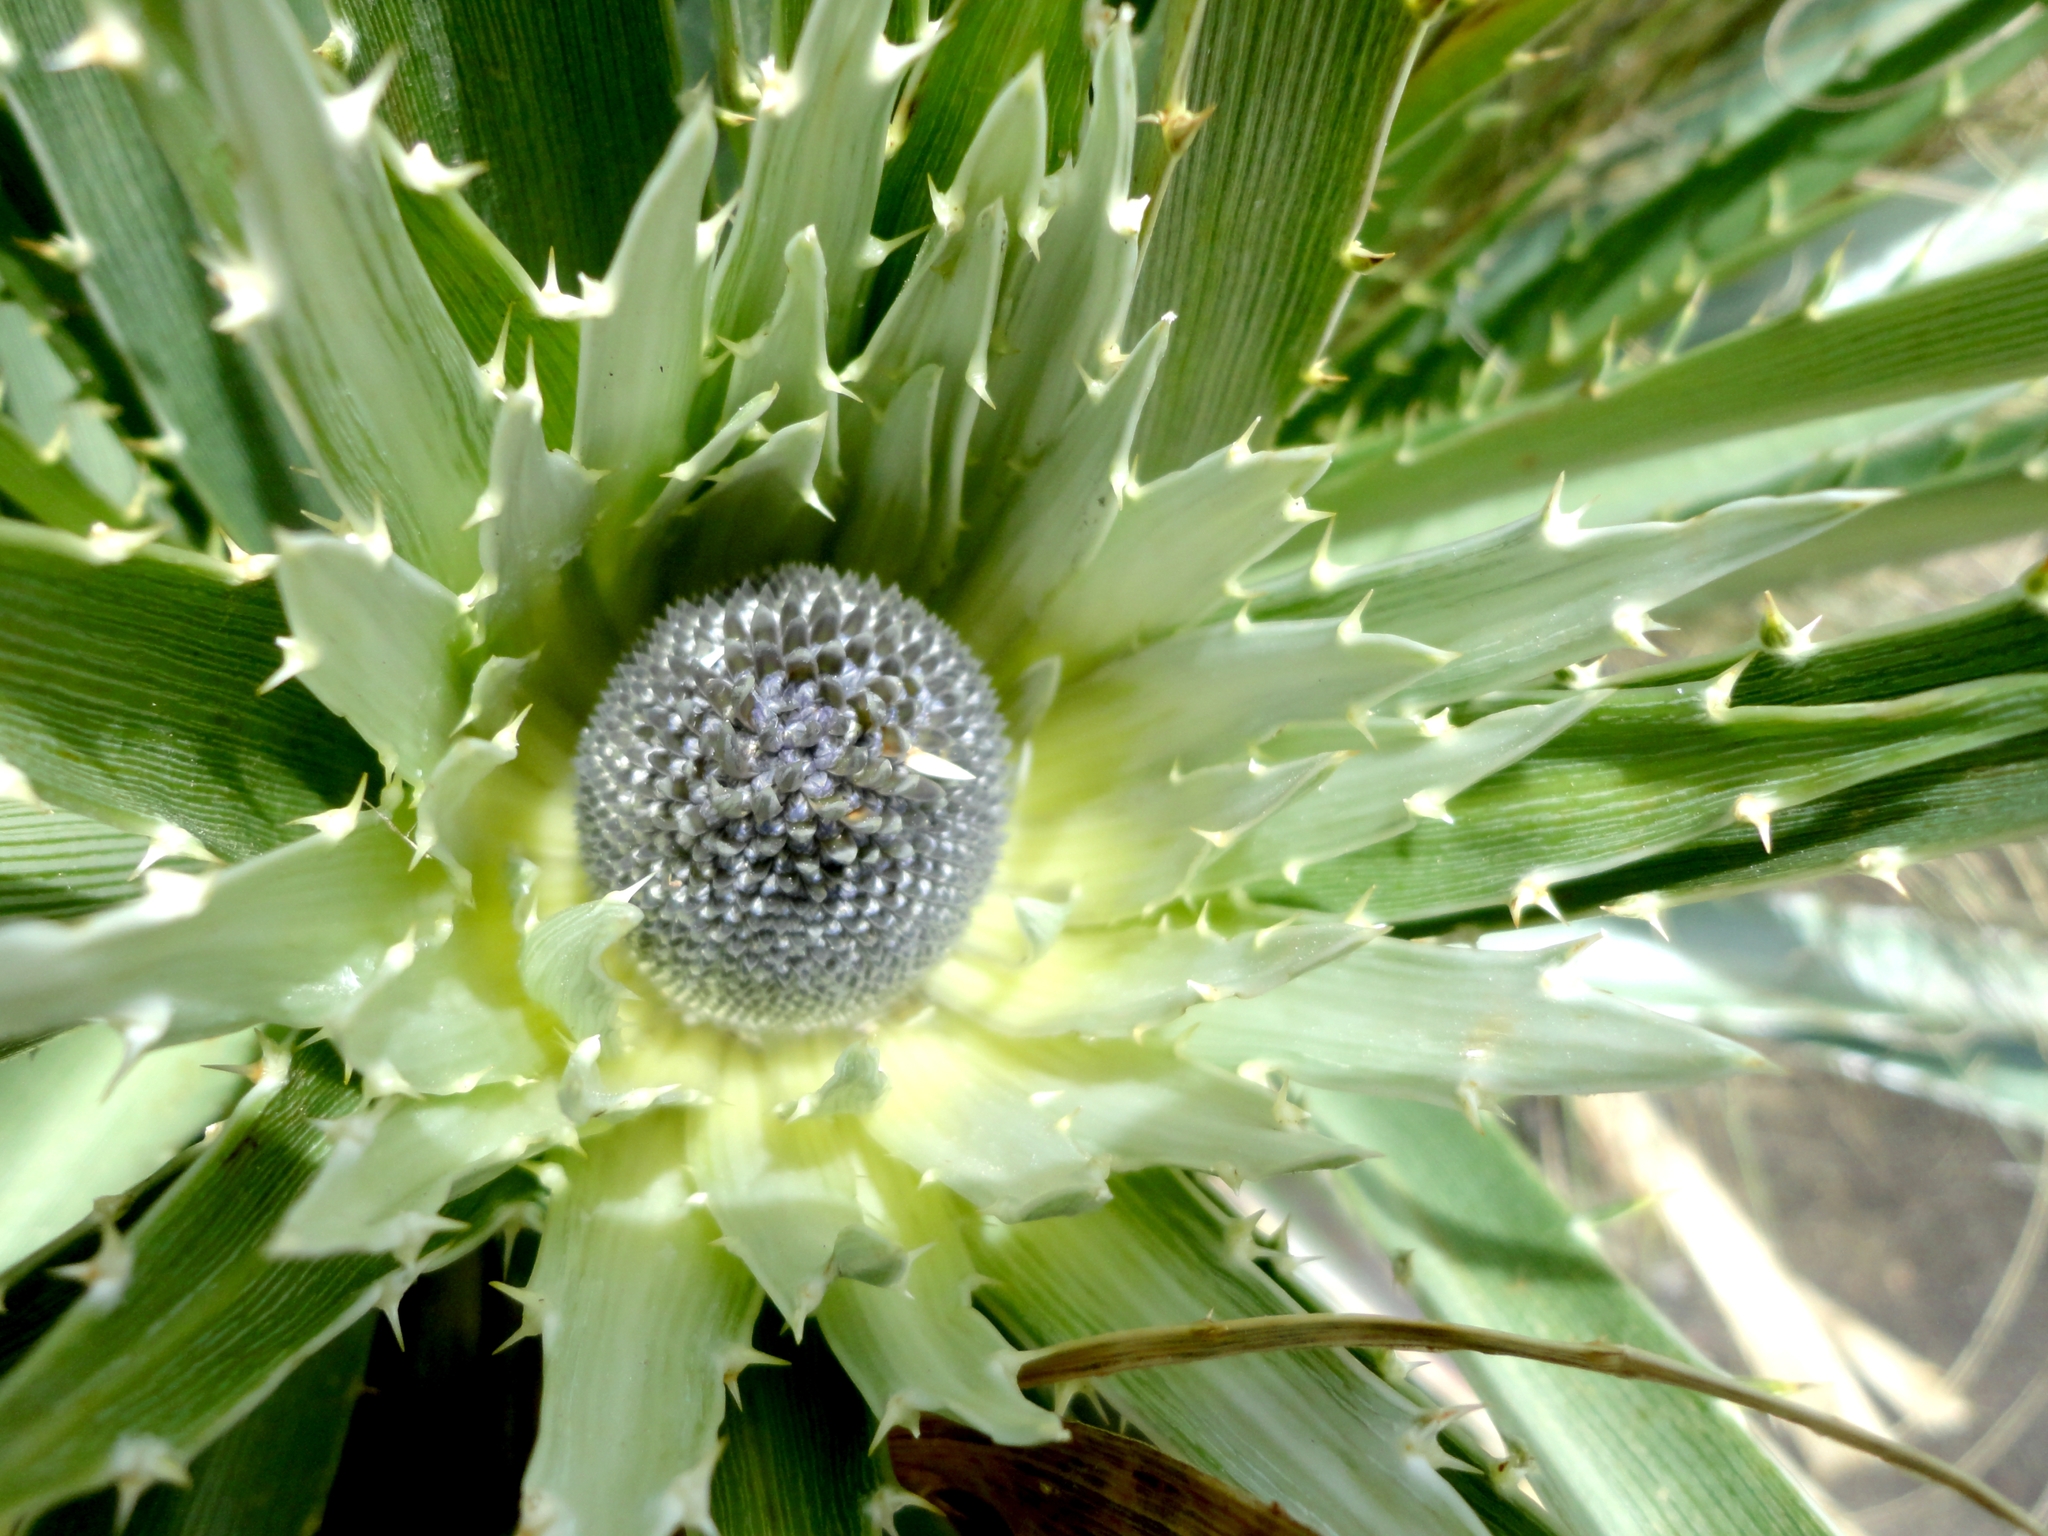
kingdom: Plantae
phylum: Tracheophyta
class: Magnoliopsida
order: Apiales
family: Apiaceae
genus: Eryngium
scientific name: Eryngium proteiflorum
